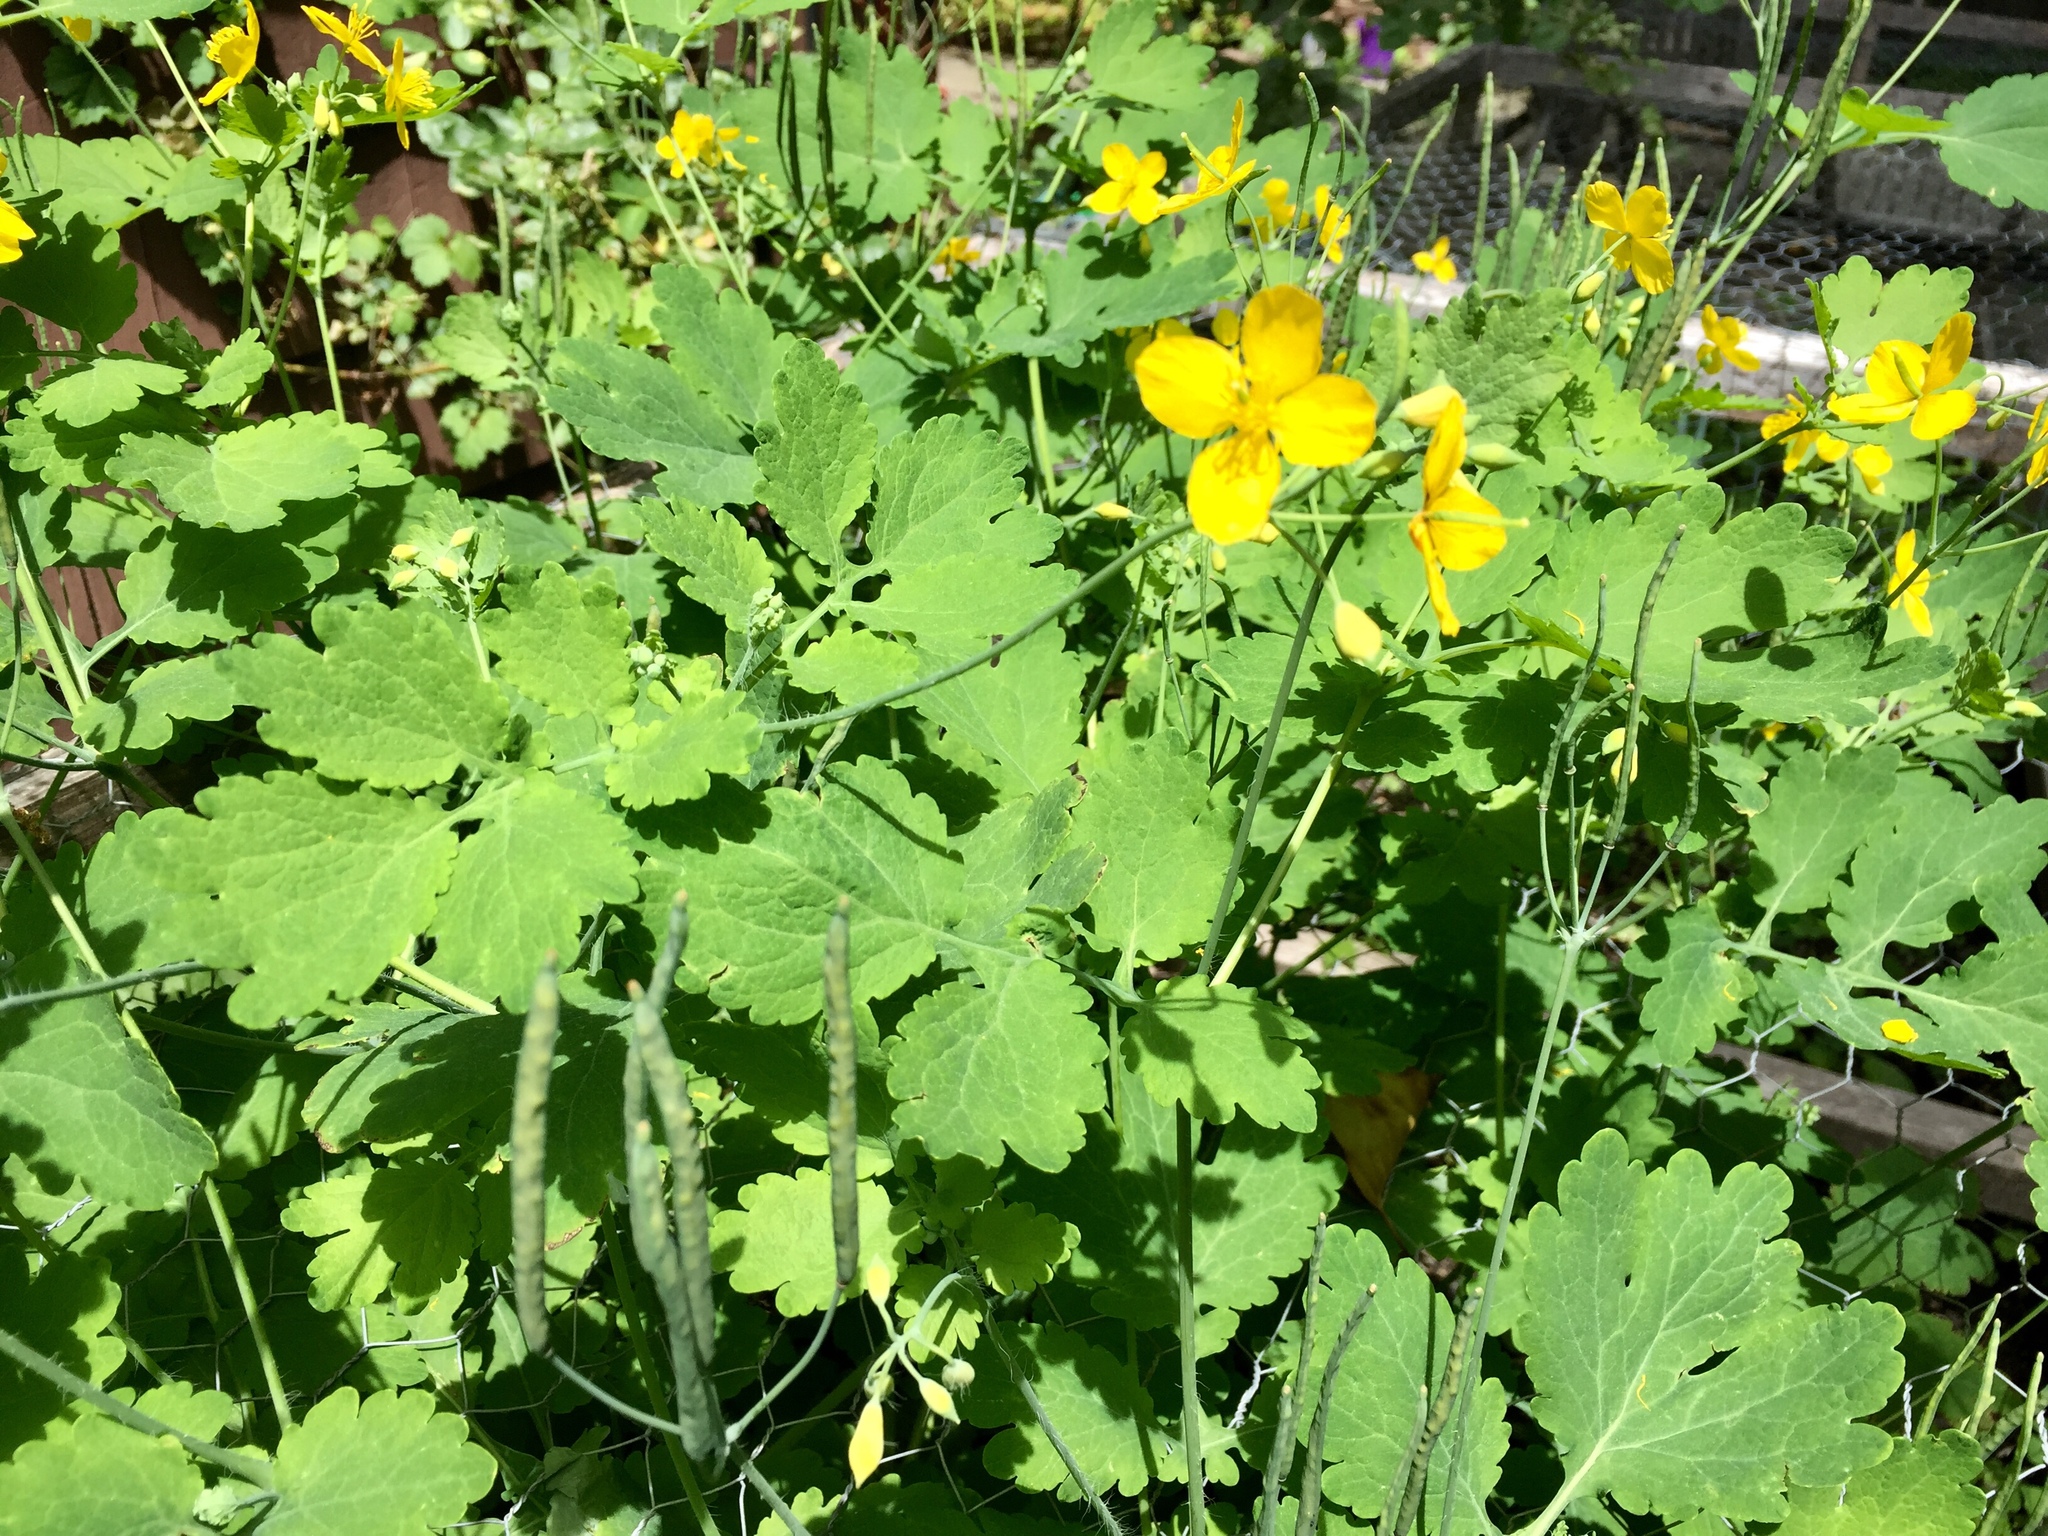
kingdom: Plantae
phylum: Tracheophyta
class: Magnoliopsida
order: Ranunculales
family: Papaveraceae
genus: Chelidonium
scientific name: Chelidonium majus
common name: Greater celandine
